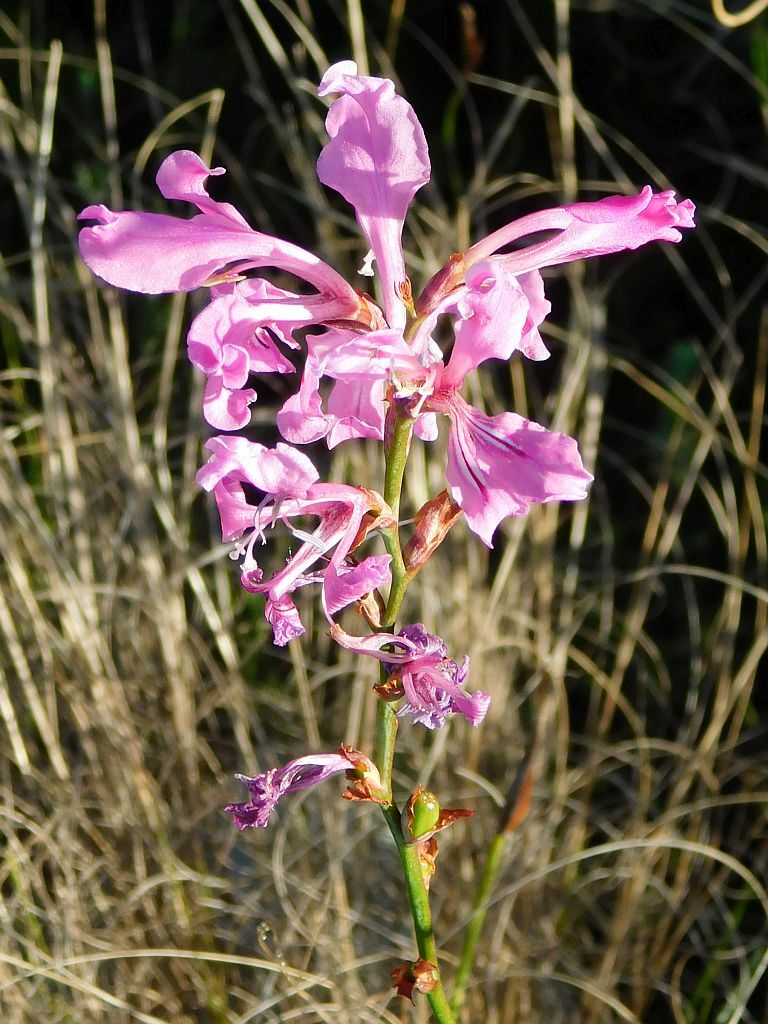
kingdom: Plantae
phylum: Tracheophyta
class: Liliopsida
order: Asparagales
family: Iridaceae
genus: Tritoniopsis
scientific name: Tritoniopsis lata
